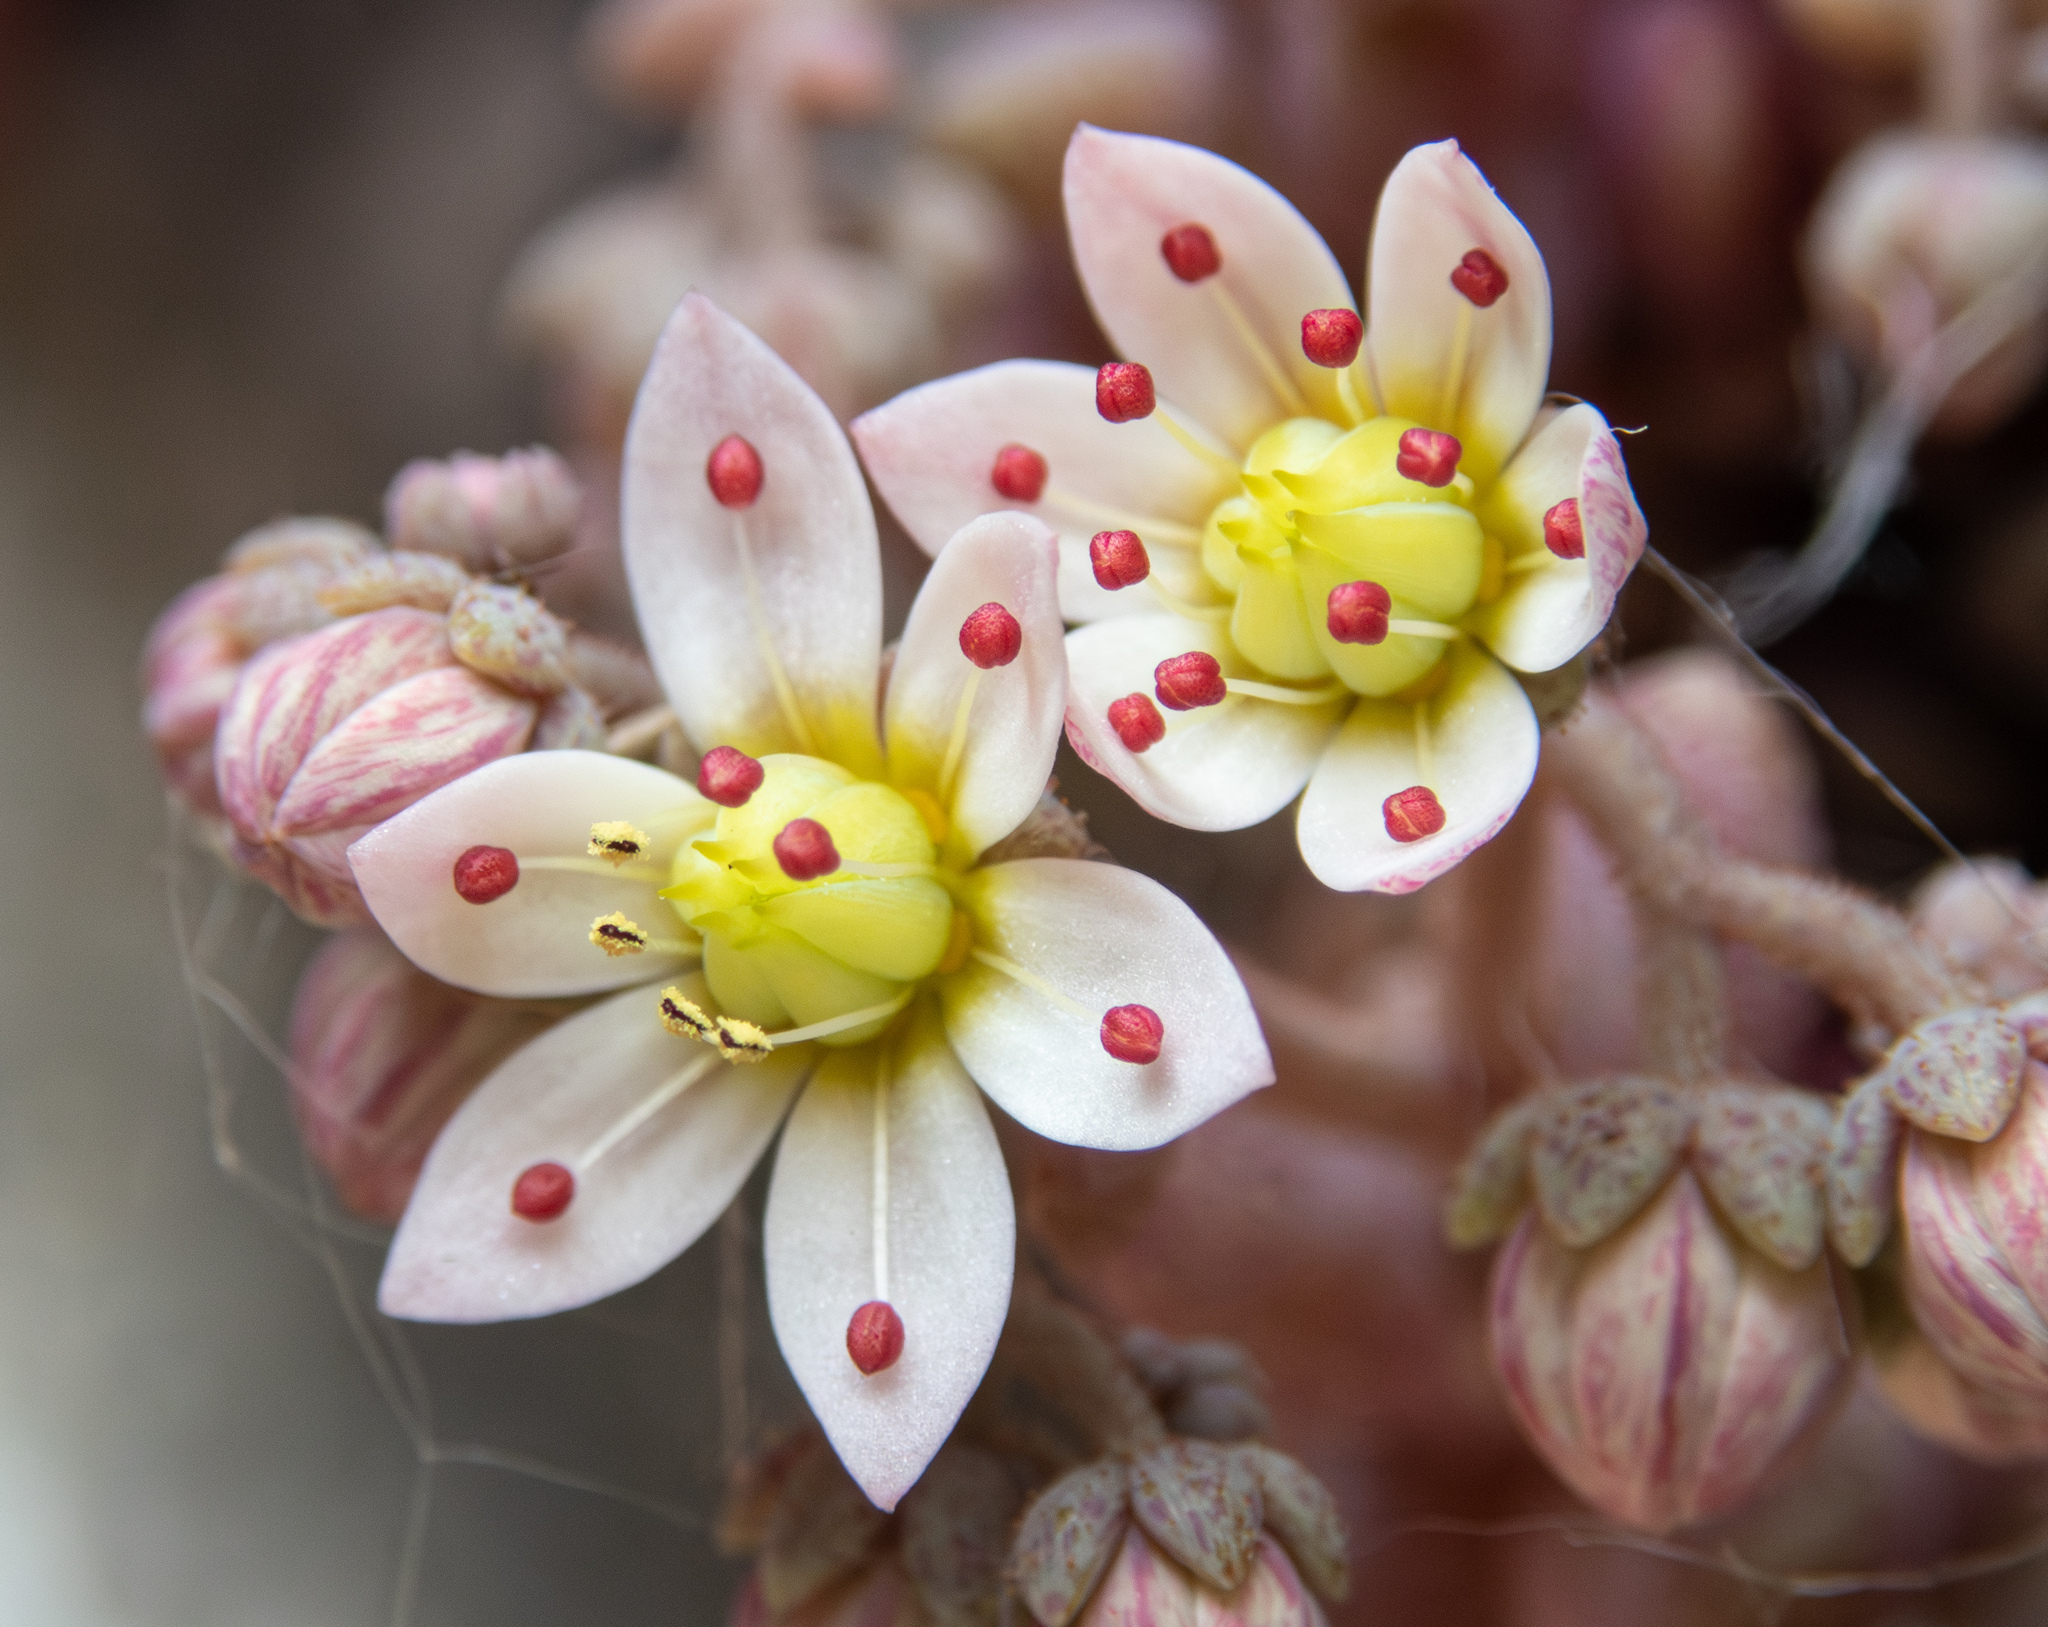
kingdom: Plantae
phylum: Tracheophyta
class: Magnoliopsida
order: Saxifragales
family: Crassulaceae
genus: Sedum
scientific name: Sedum dasyphyllum
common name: Thick-leaf stonecrop
